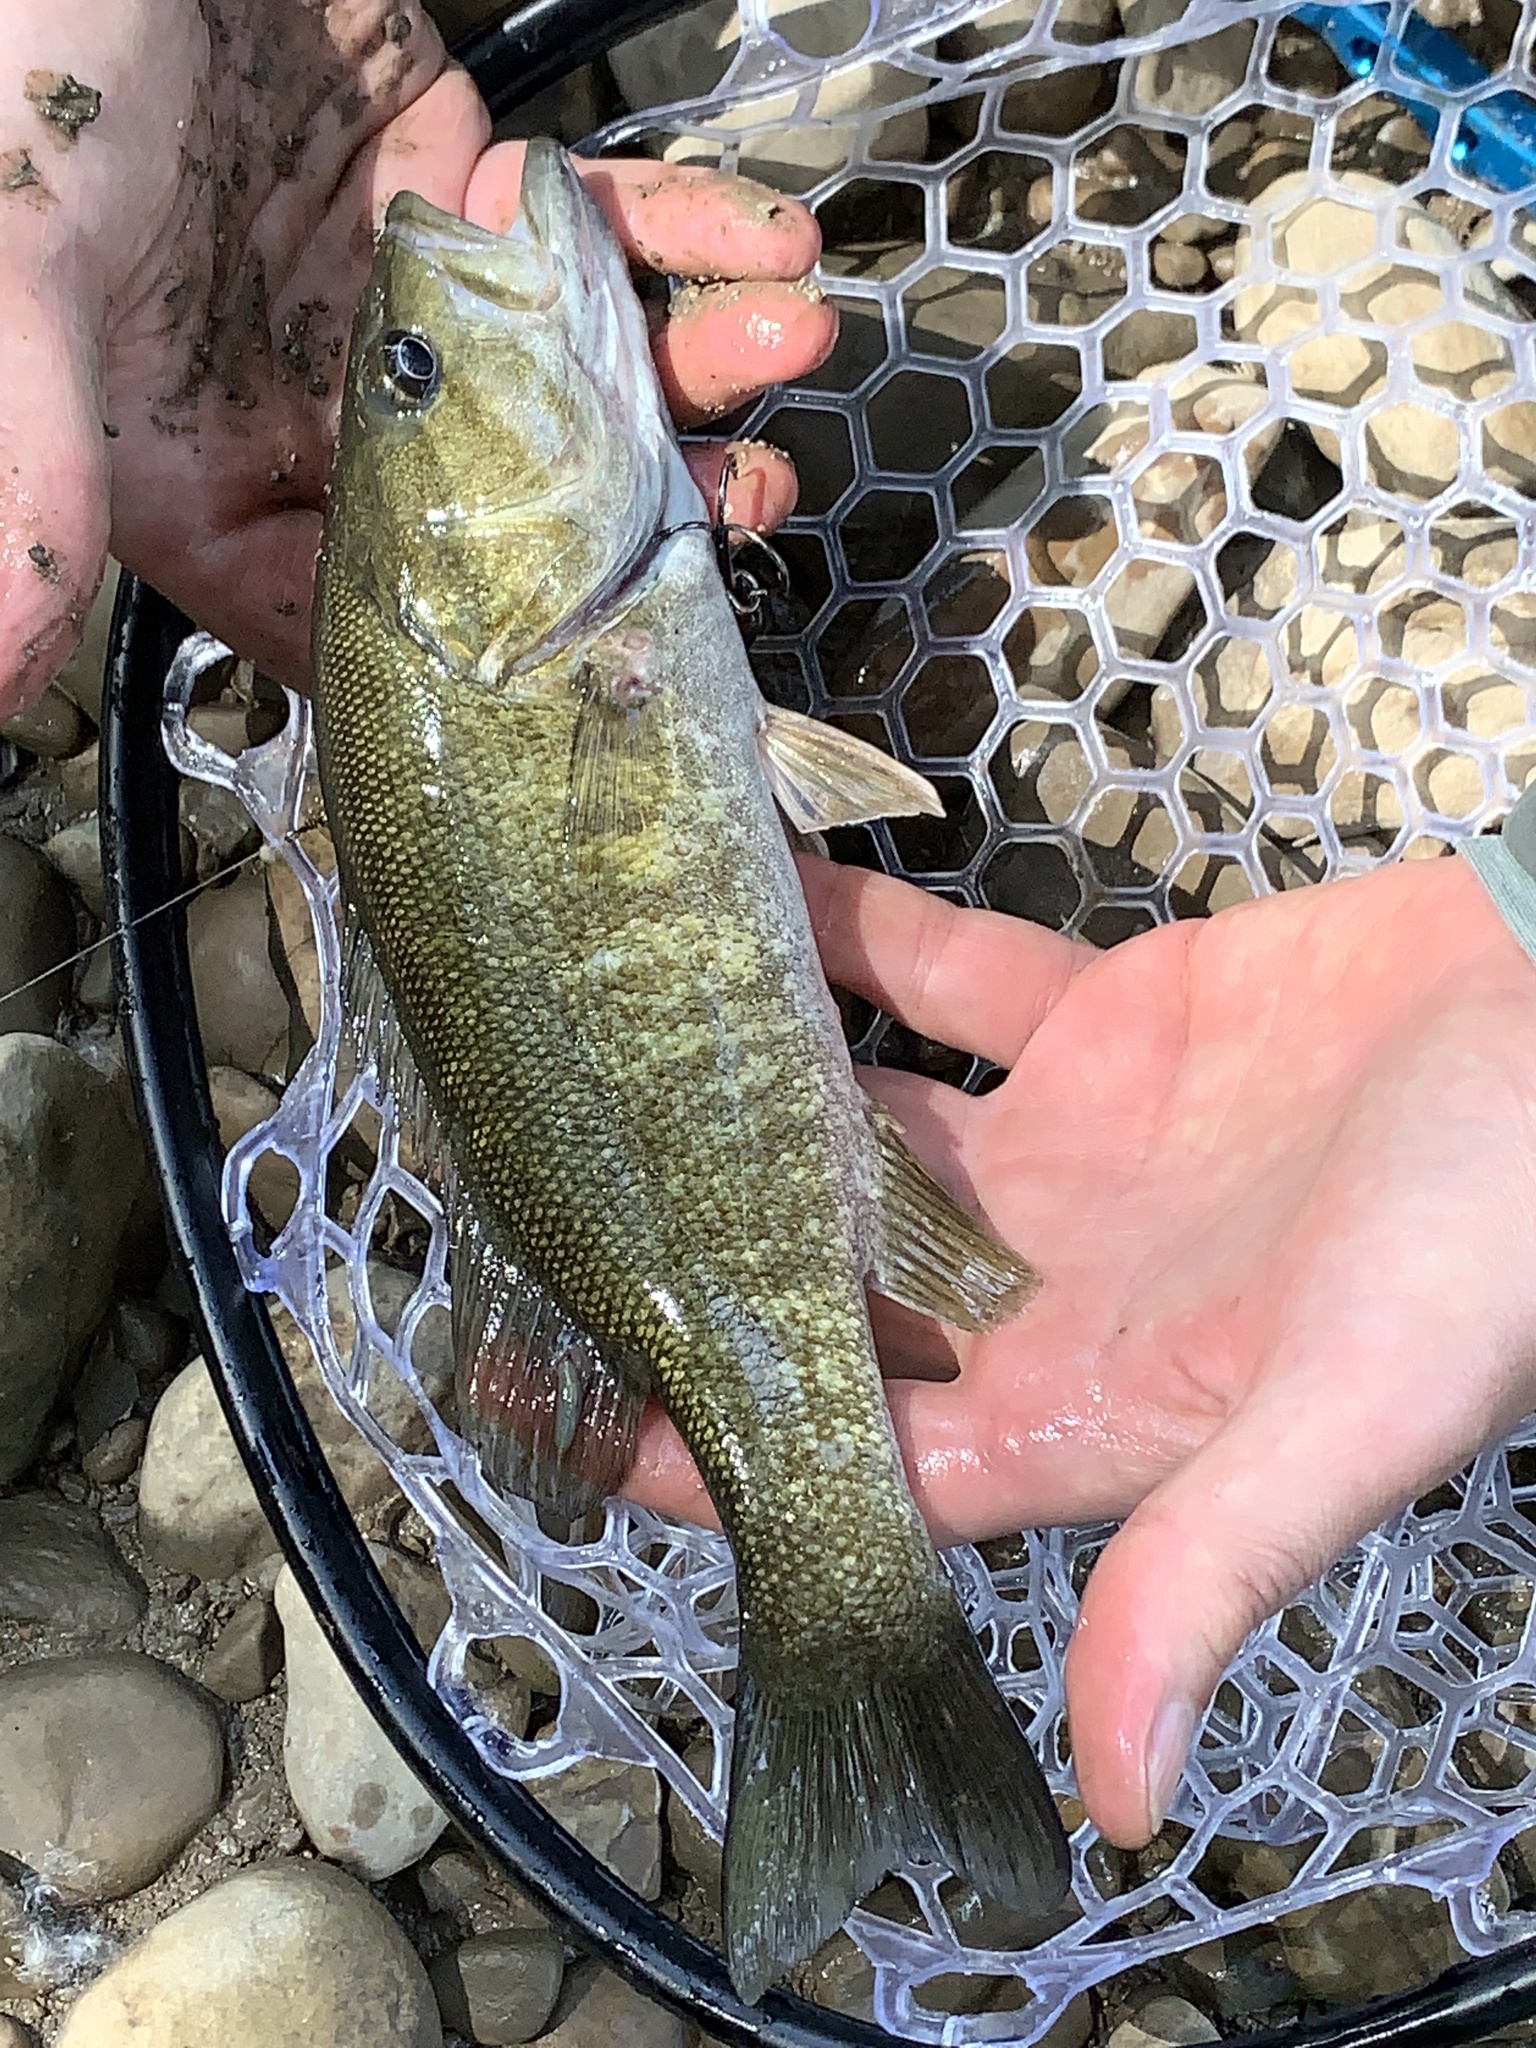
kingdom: Animalia
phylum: Chordata
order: Perciformes
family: Centrarchidae
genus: Micropterus
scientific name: Micropterus dolomieu
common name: Smallmouth bass
